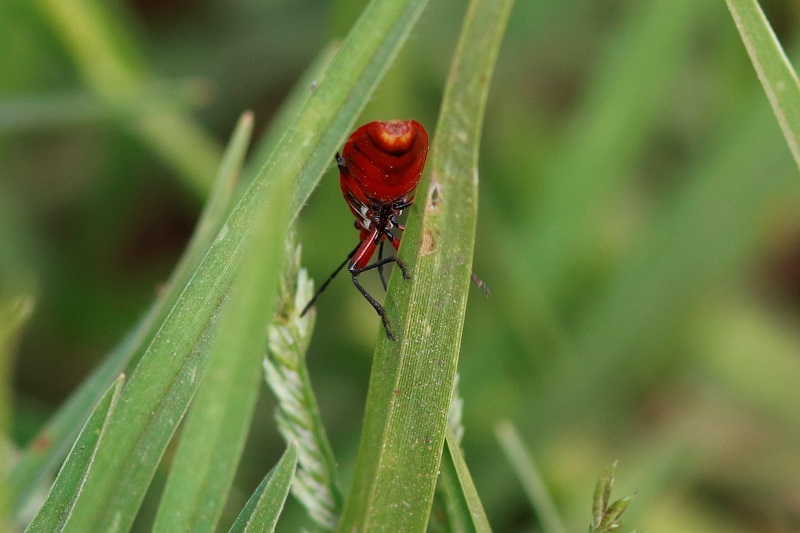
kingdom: Animalia
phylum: Arthropoda
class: Insecta
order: Hemiptera
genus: Cenaeus
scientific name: Cenaeus
